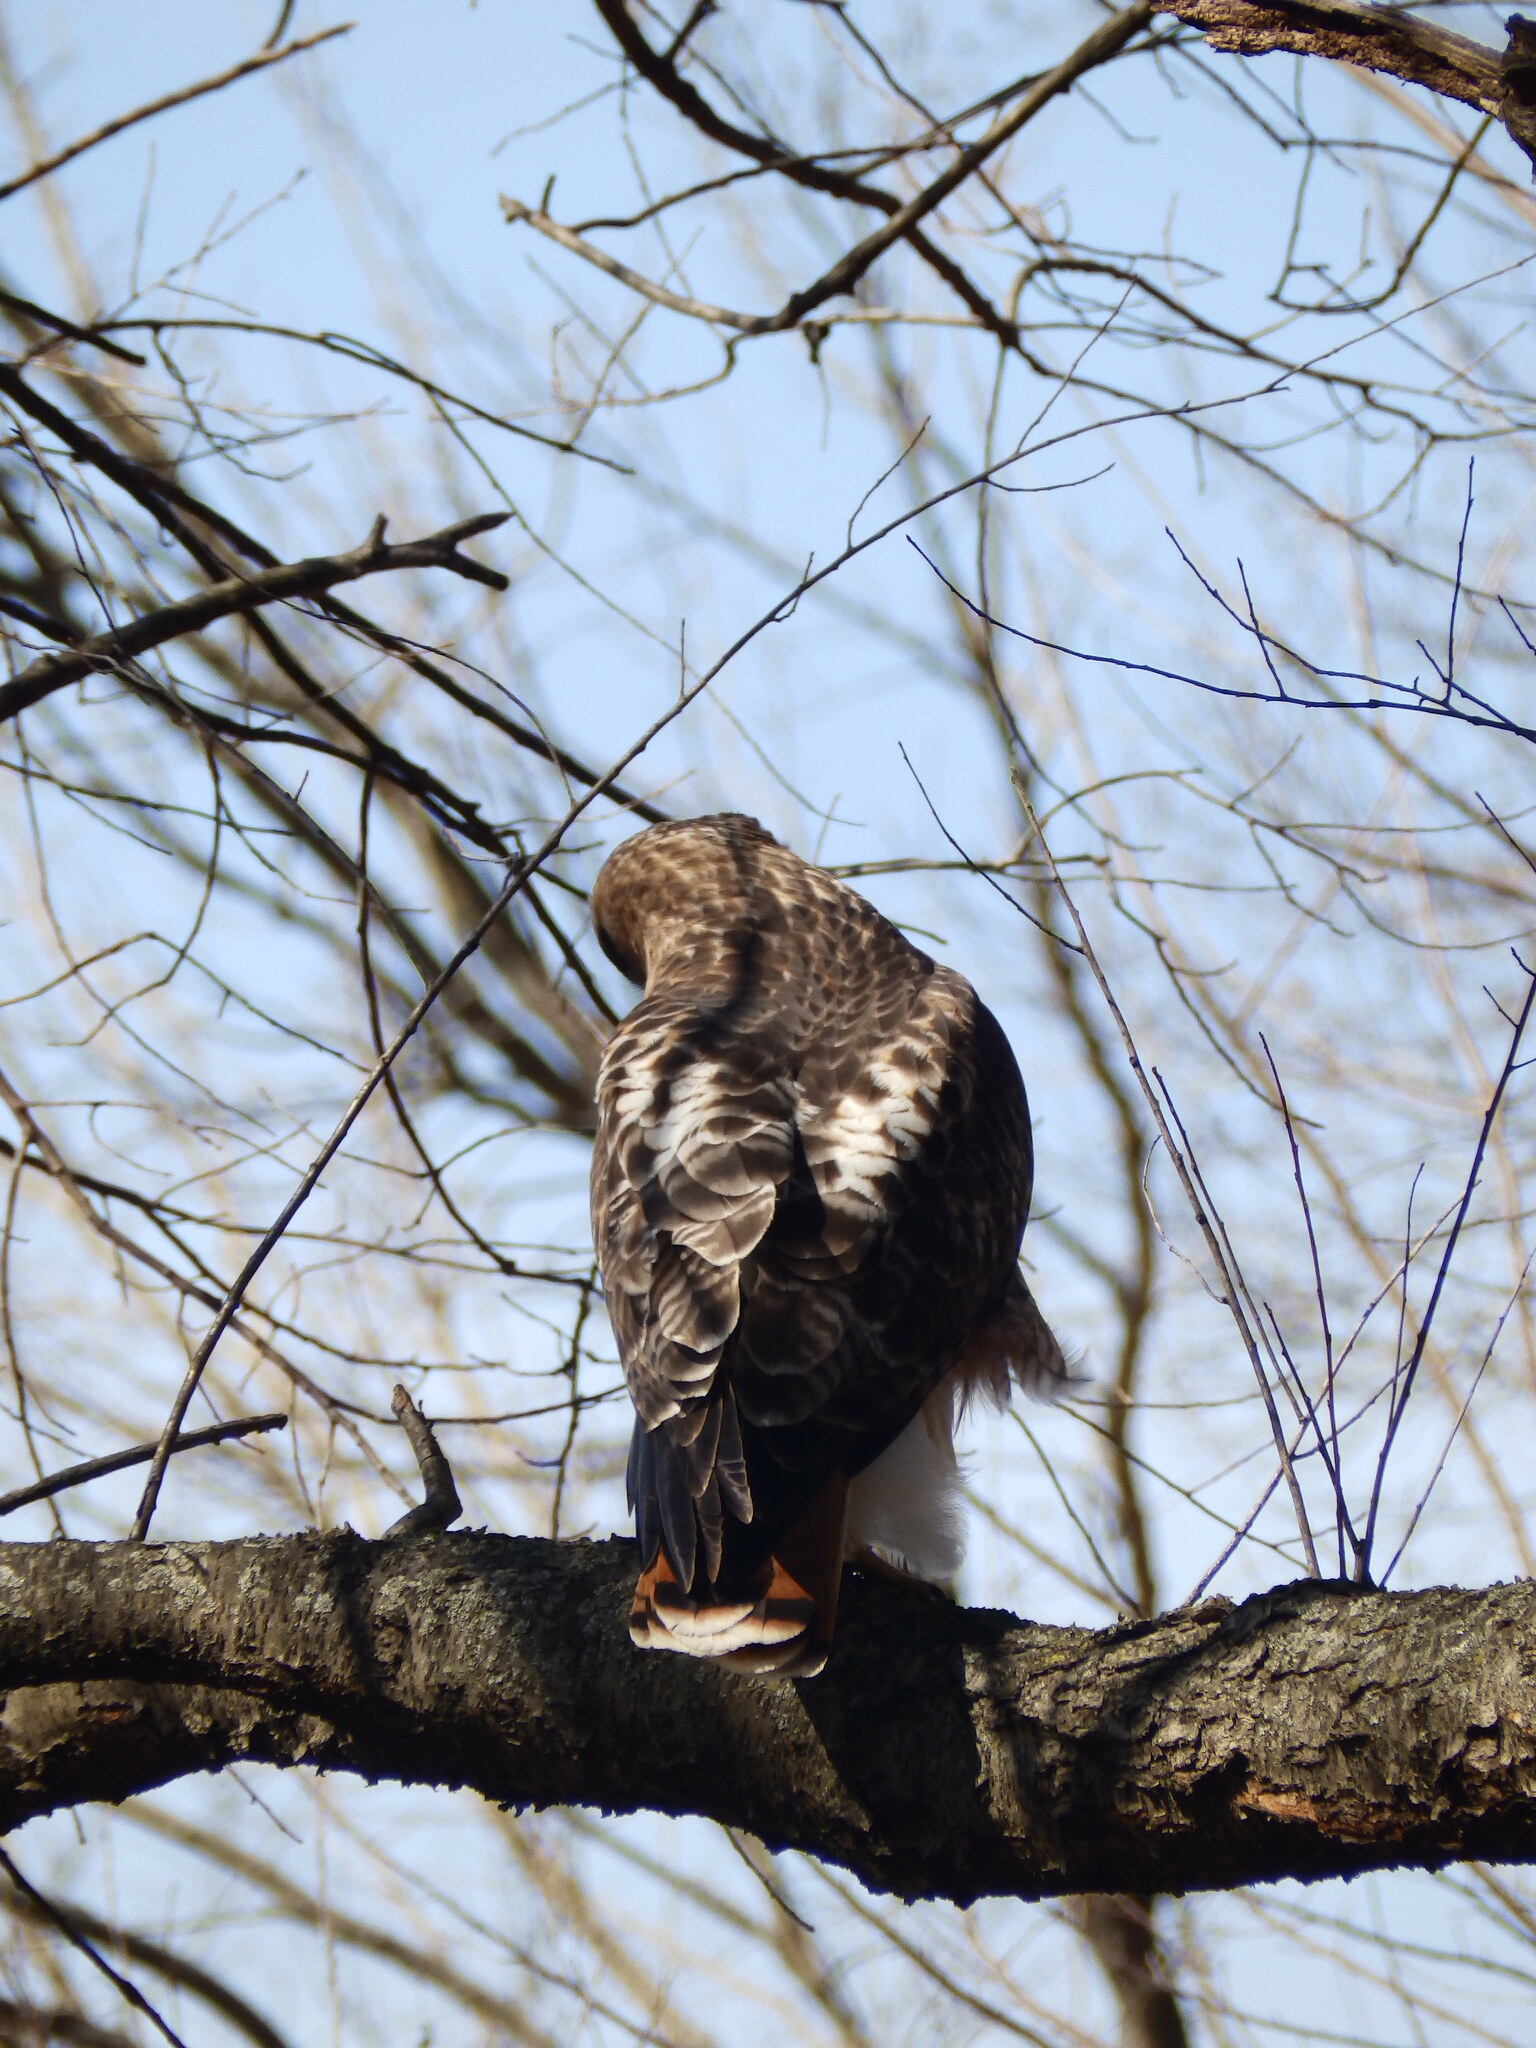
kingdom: Animalia
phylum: Chordata
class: Aves
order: Accipitriformes
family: Accipitridae
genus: Buteo
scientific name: Buteo jamaicensis
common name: Red-tailed hawk
